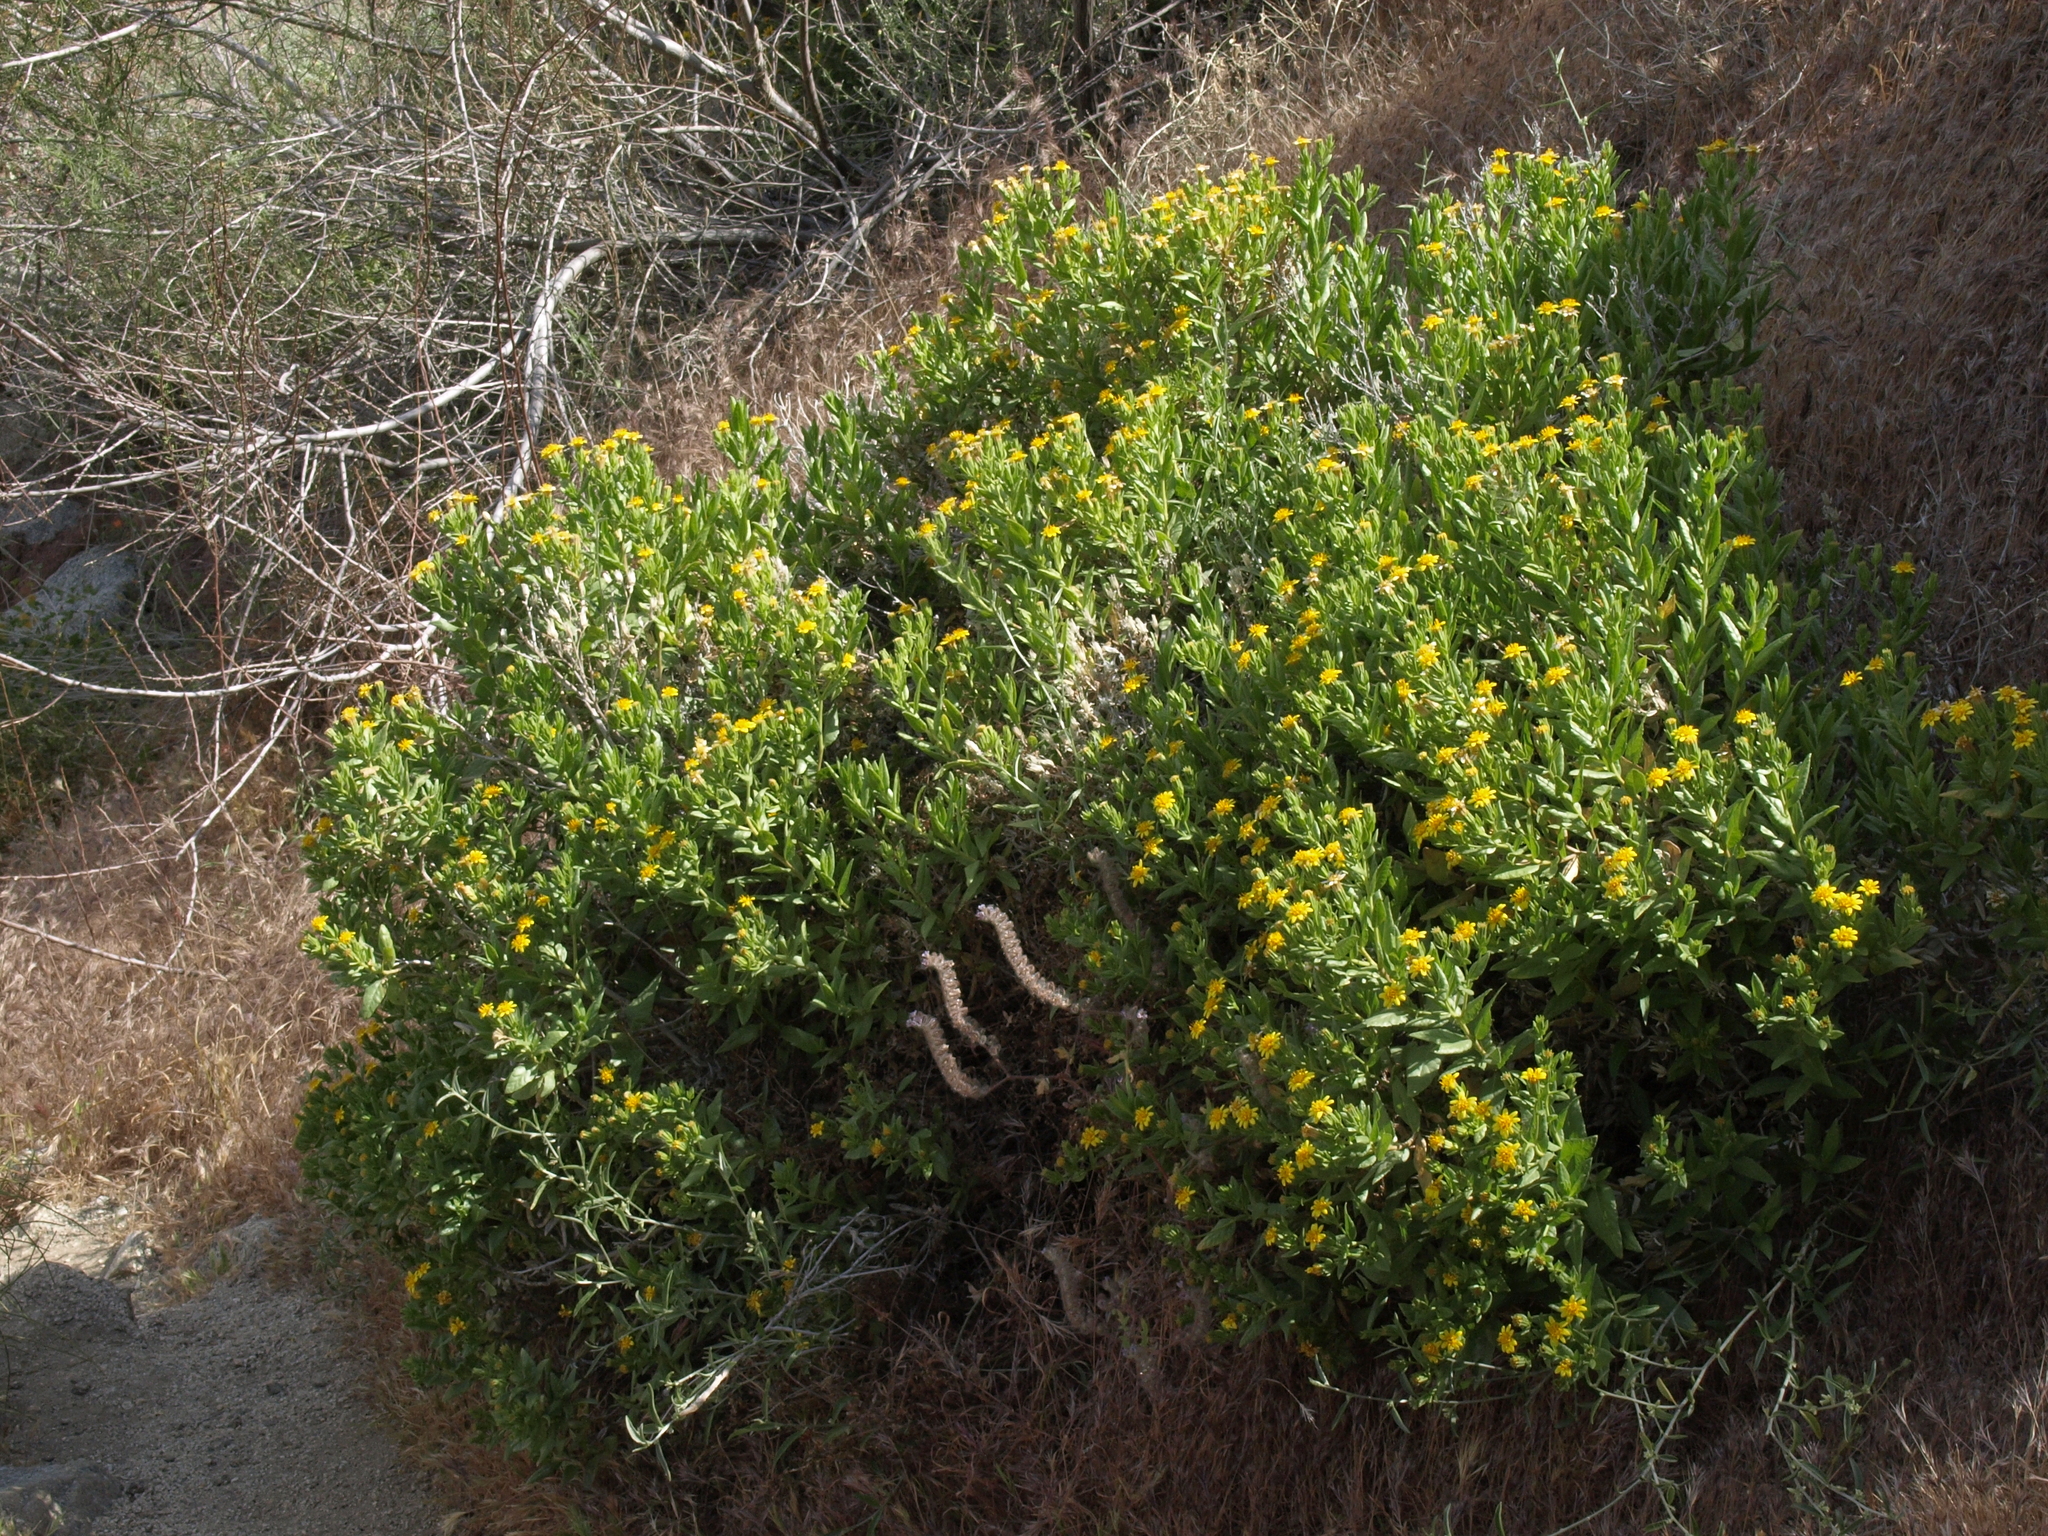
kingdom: Plantae
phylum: Tracheophyta
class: Magnoliopsida
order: Asterales
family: Asteraceae
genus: Trixis
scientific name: Trixis californica
